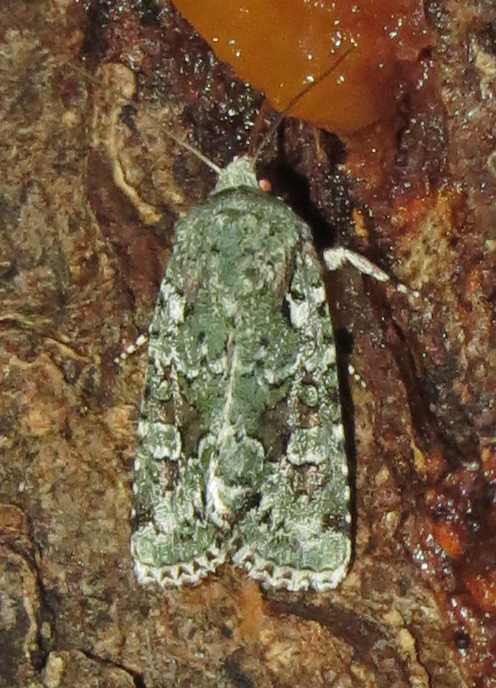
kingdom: Animalia
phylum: Arthropoda
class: Insecta
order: Lepidoptera
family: Noctuidae
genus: Lacinipolia
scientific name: Lacinipolia laudabilis
